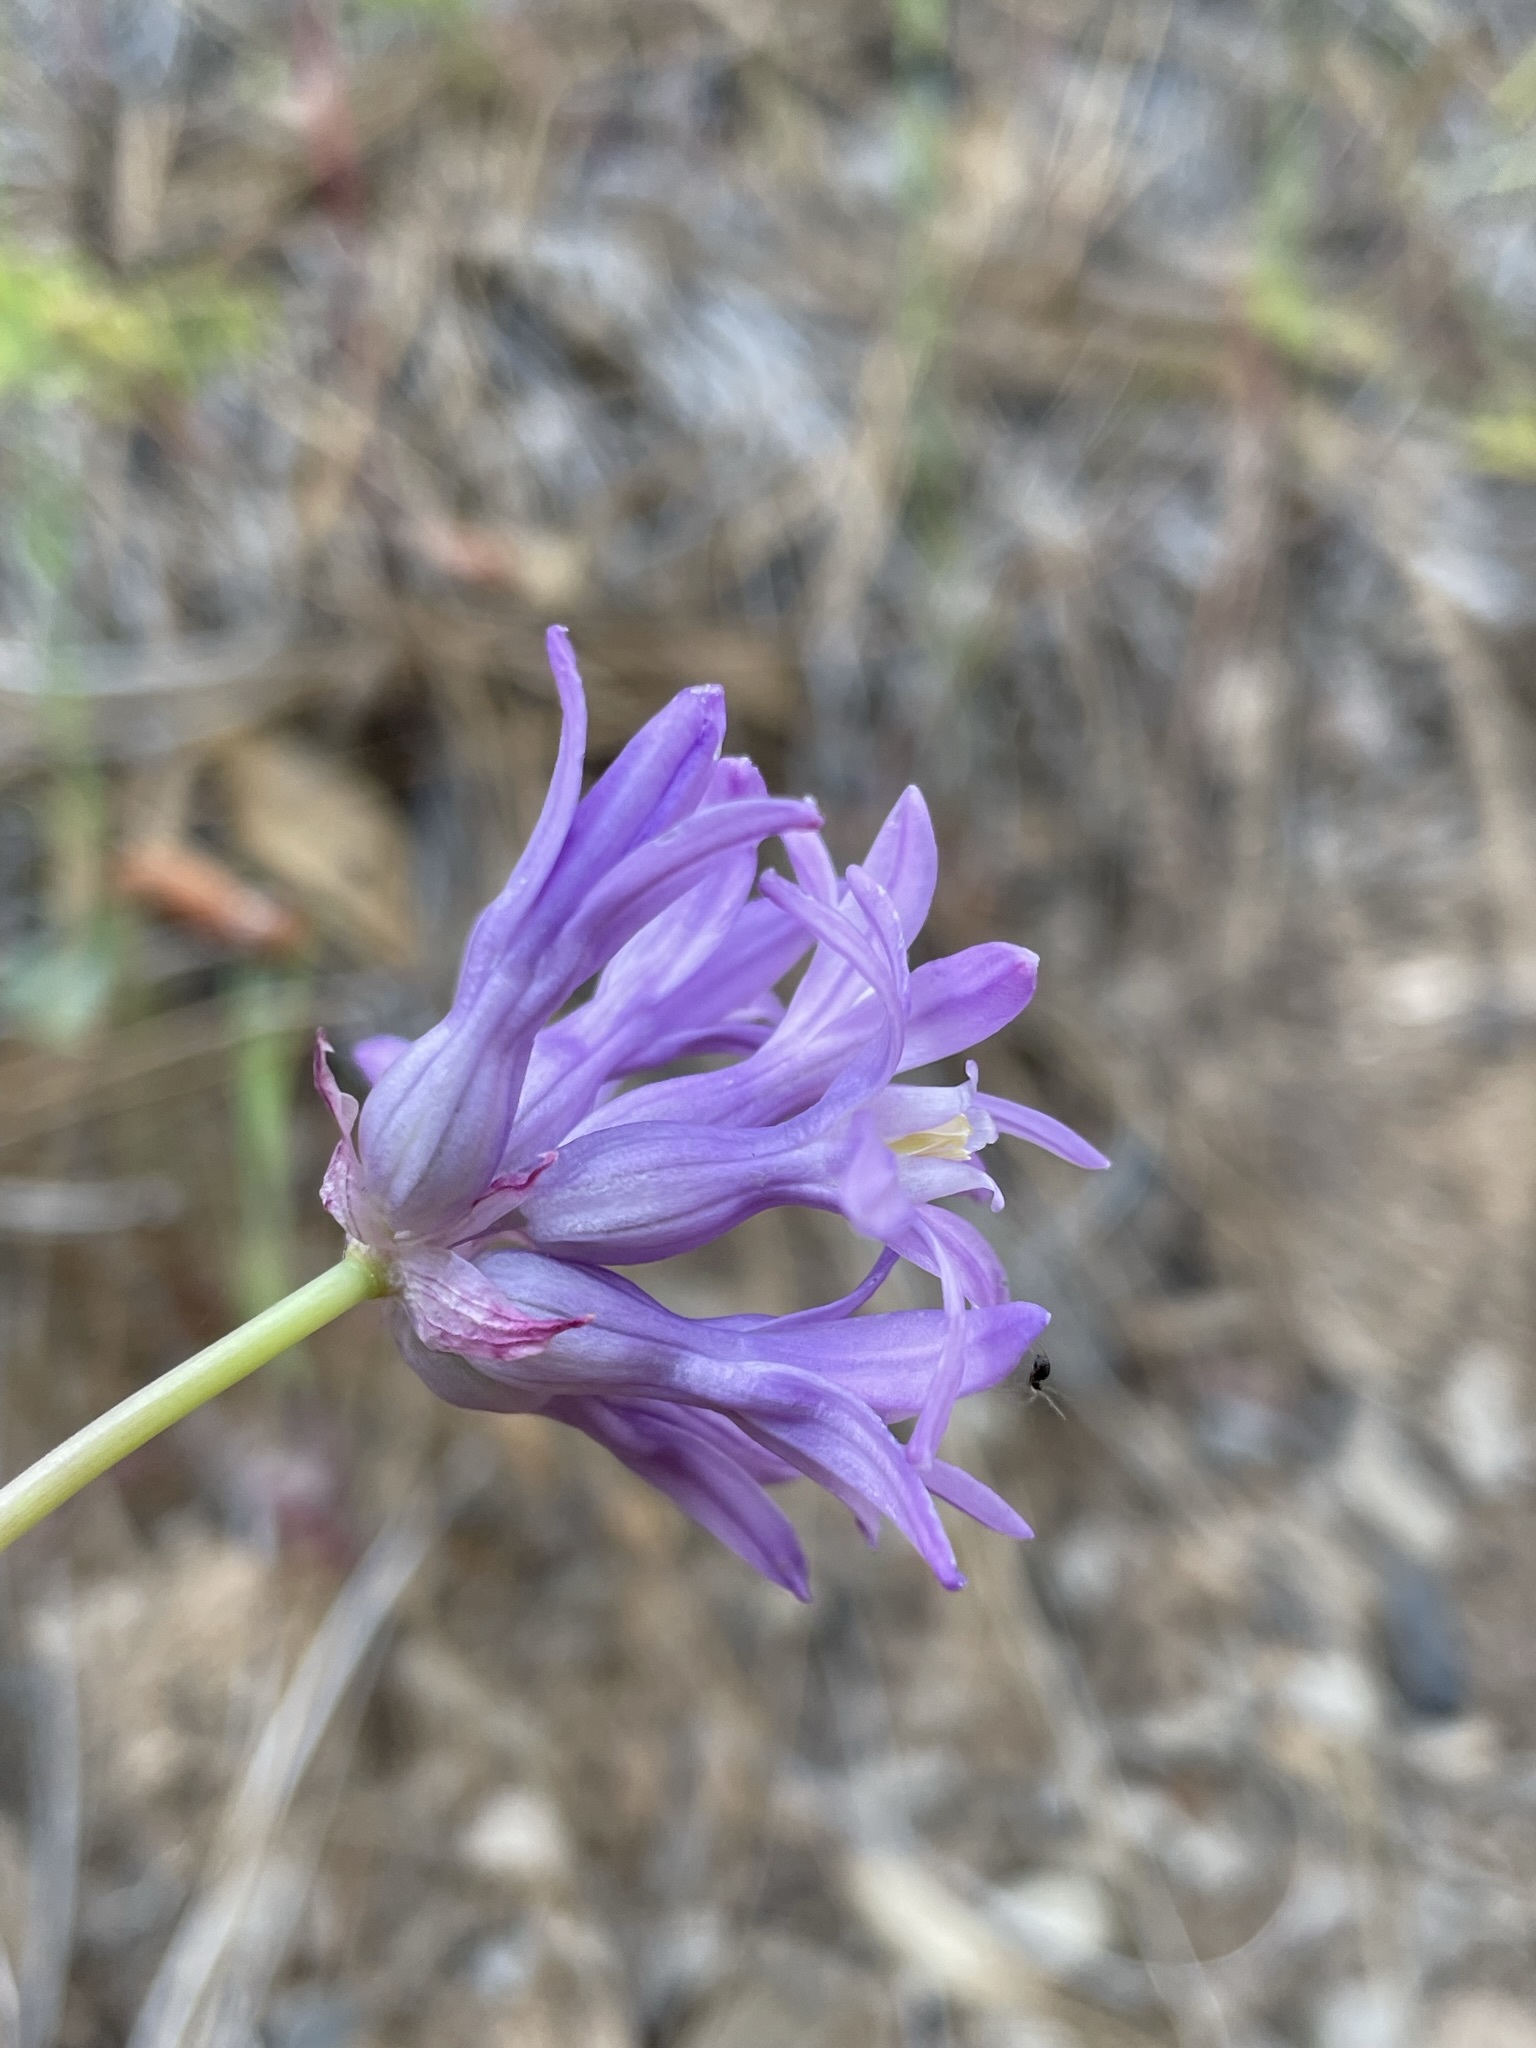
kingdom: Plantae
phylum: Tracheophyta
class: Liliopsida
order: Asparagales
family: Asparagaceae
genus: Dichelostemma
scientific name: Dichelostemma multiflorum
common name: Round-tooth ookow
